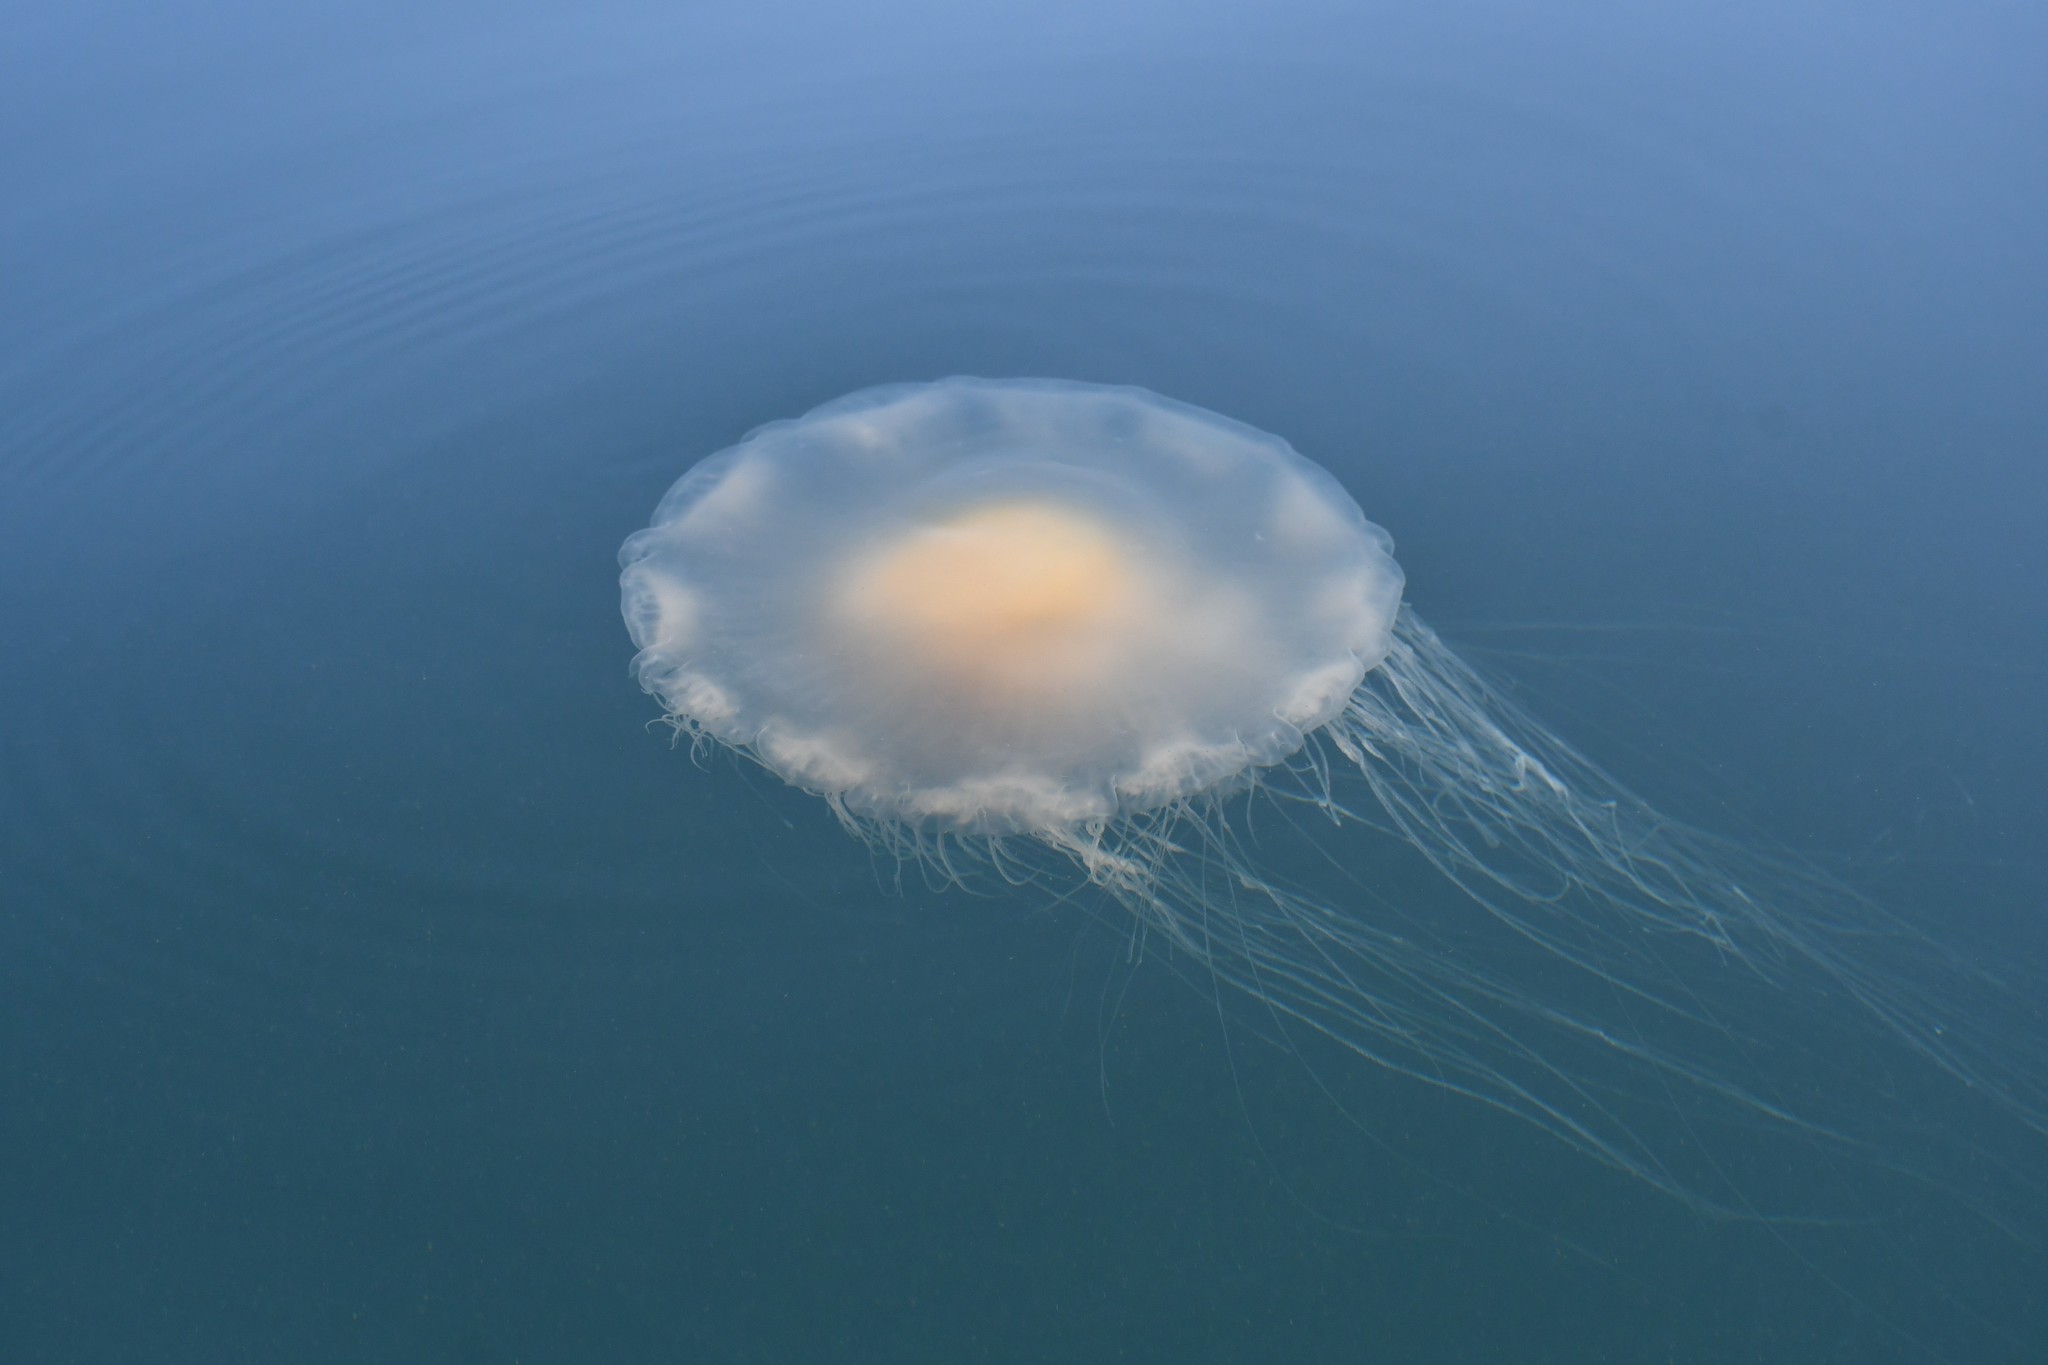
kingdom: Animalia
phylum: Cnidaria
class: Scyphozoa
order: Semaeostomeae
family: Phacellophoridae
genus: Phacellophora
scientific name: Phacellophora camtschatica
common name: Fried-egg jellyfish
